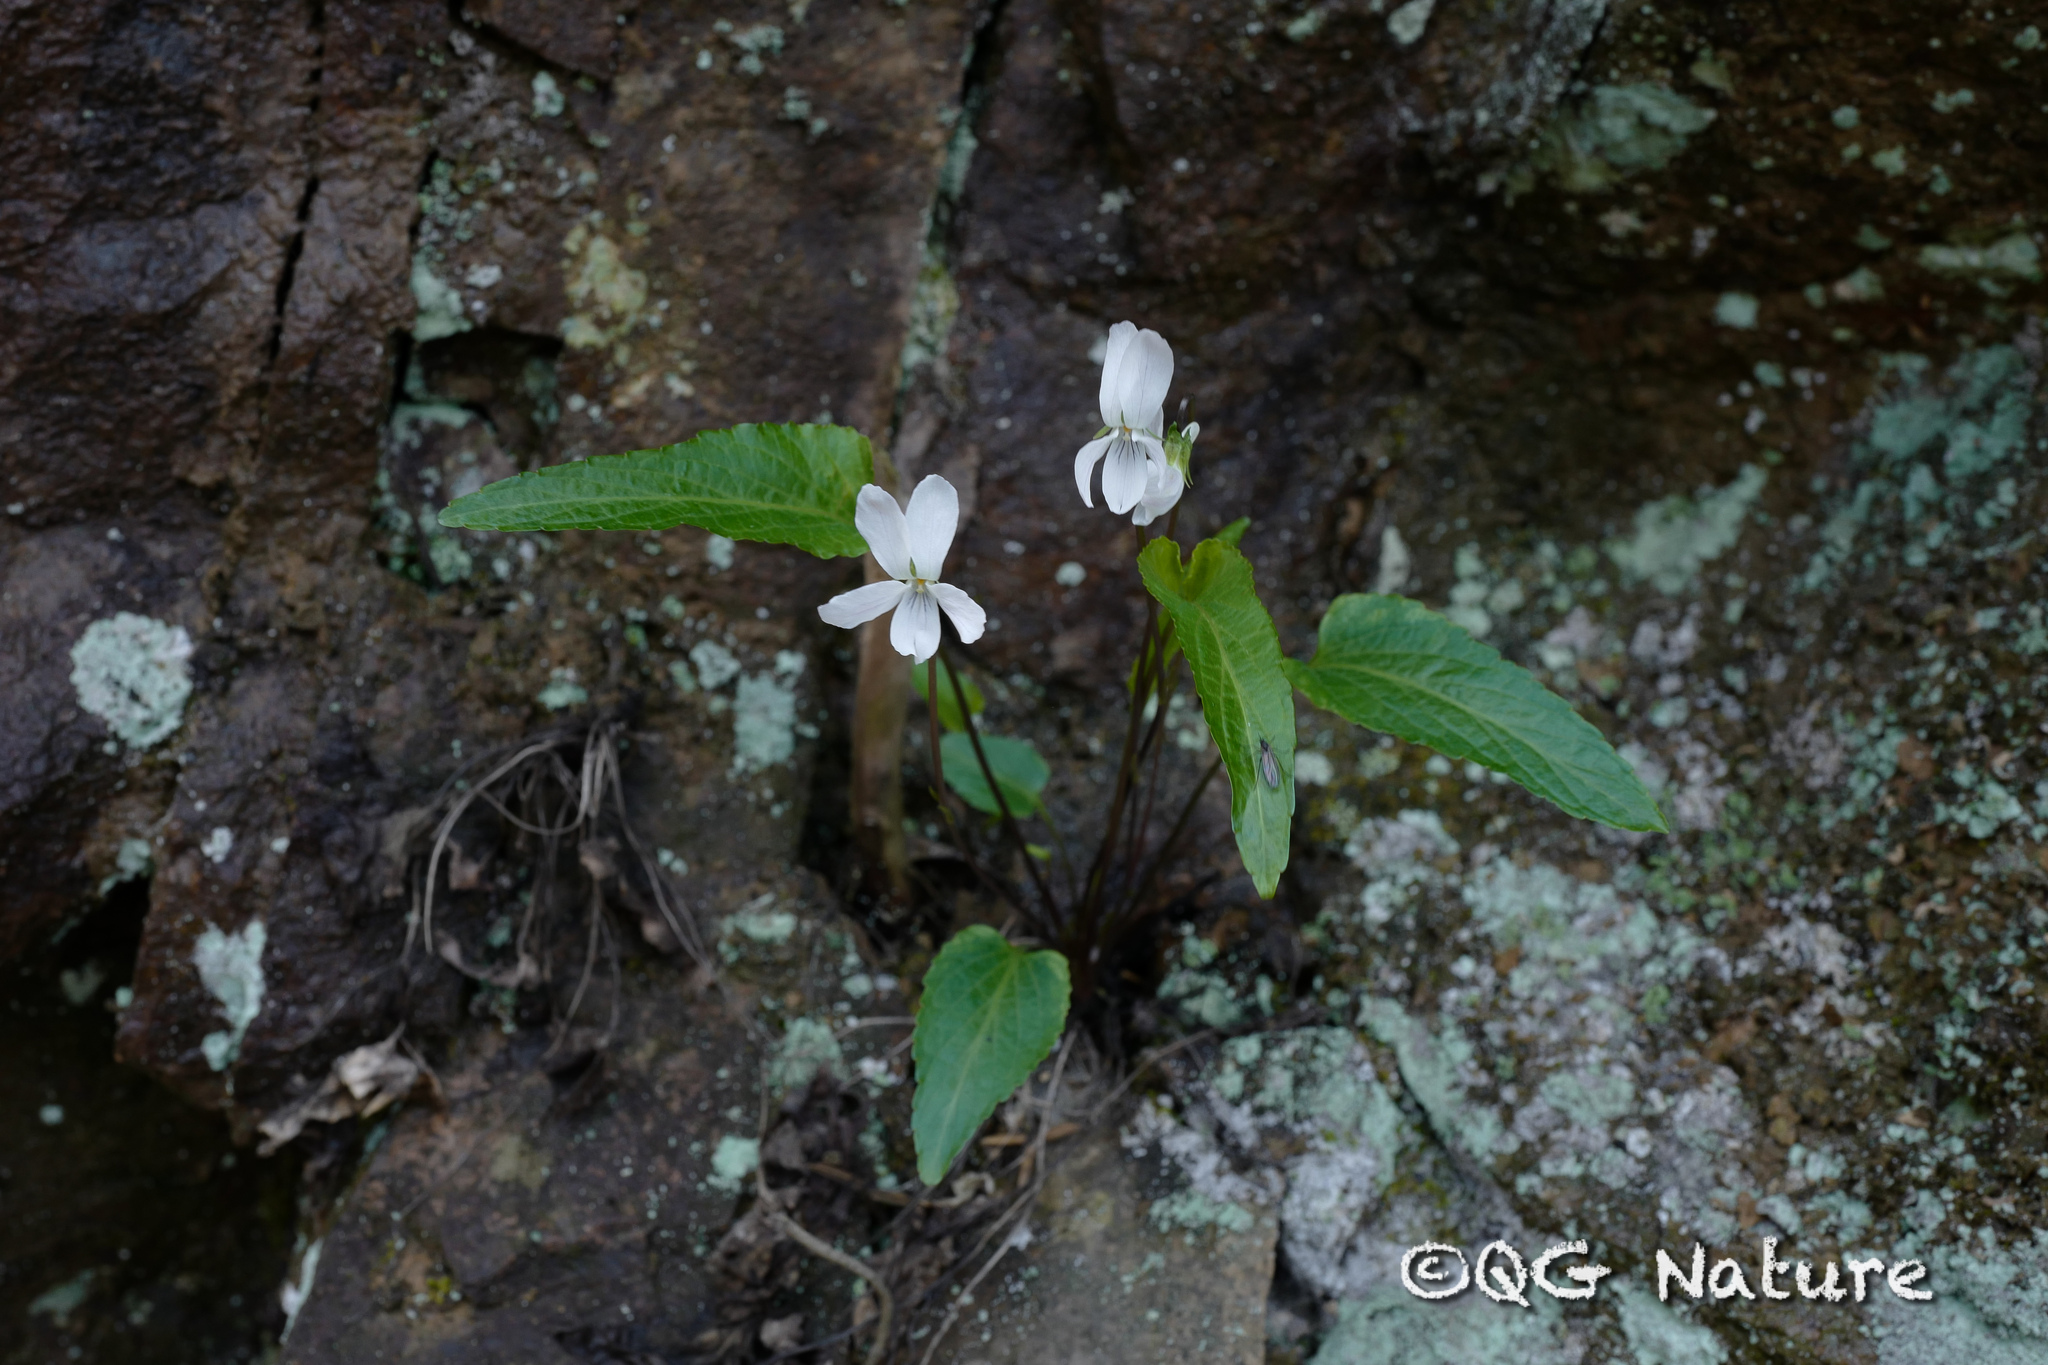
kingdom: Plantae
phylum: Tracheophyta
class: Magnoliopsida
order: Malpighiales
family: Violaceae
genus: Viola
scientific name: Viola lactiflora
